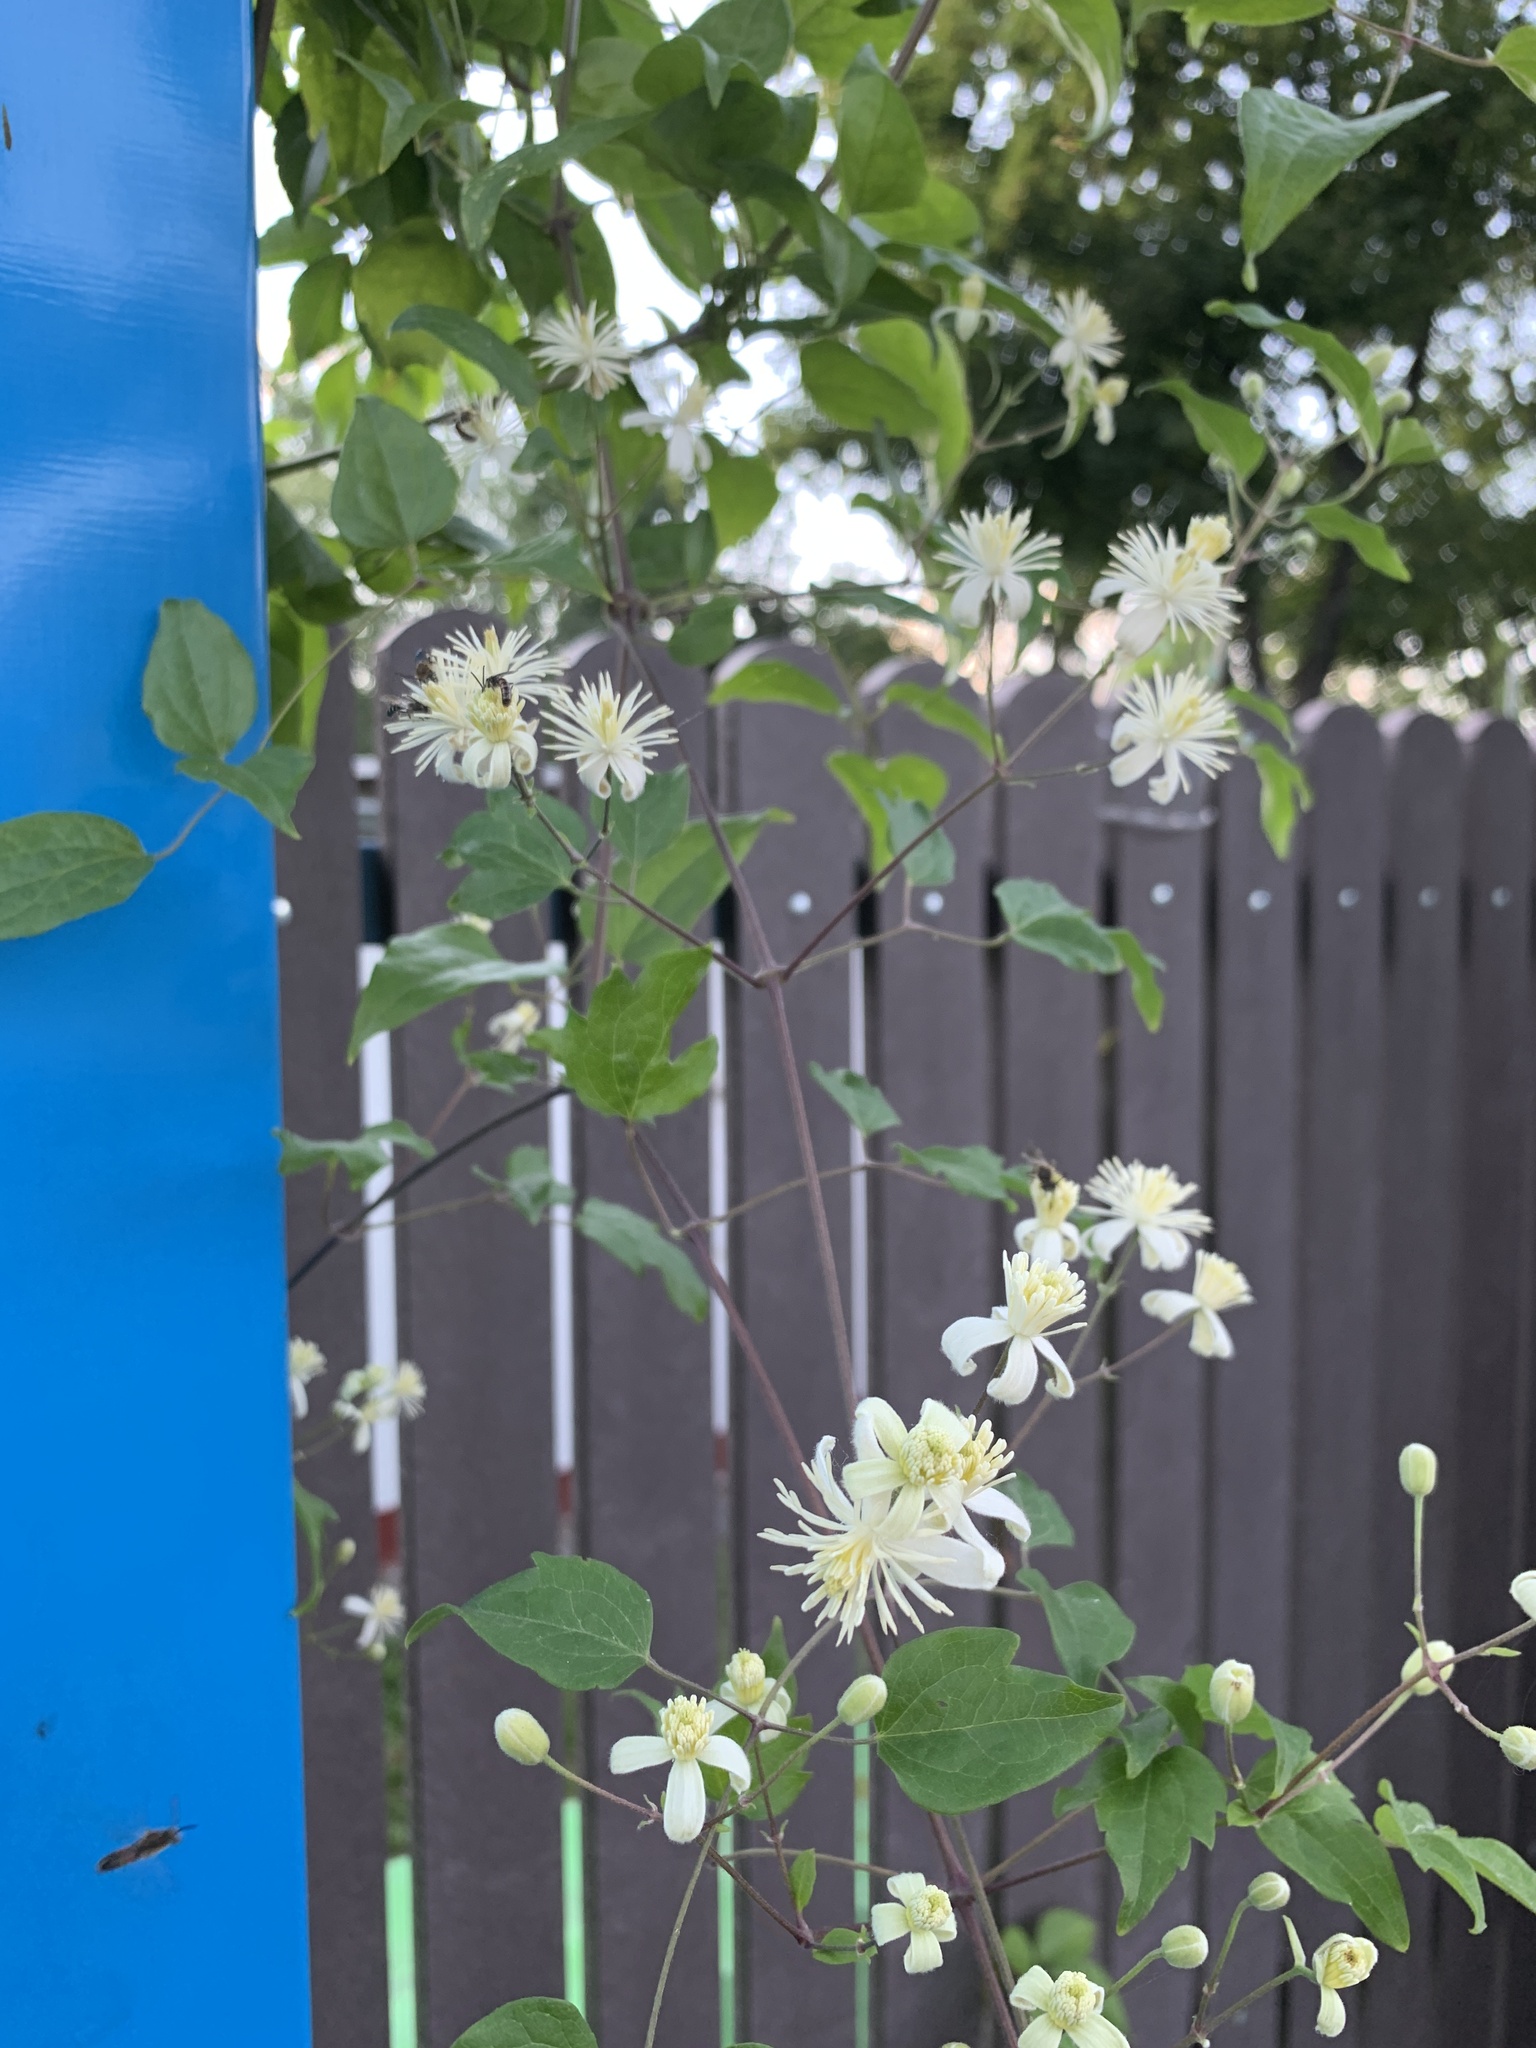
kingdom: Plantae
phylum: Tracheophyta
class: Magnoliopsida
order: Ranunculales
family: Ranunculaceae
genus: Clematis
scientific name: Clematis vitalba
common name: Evergreen clematis
